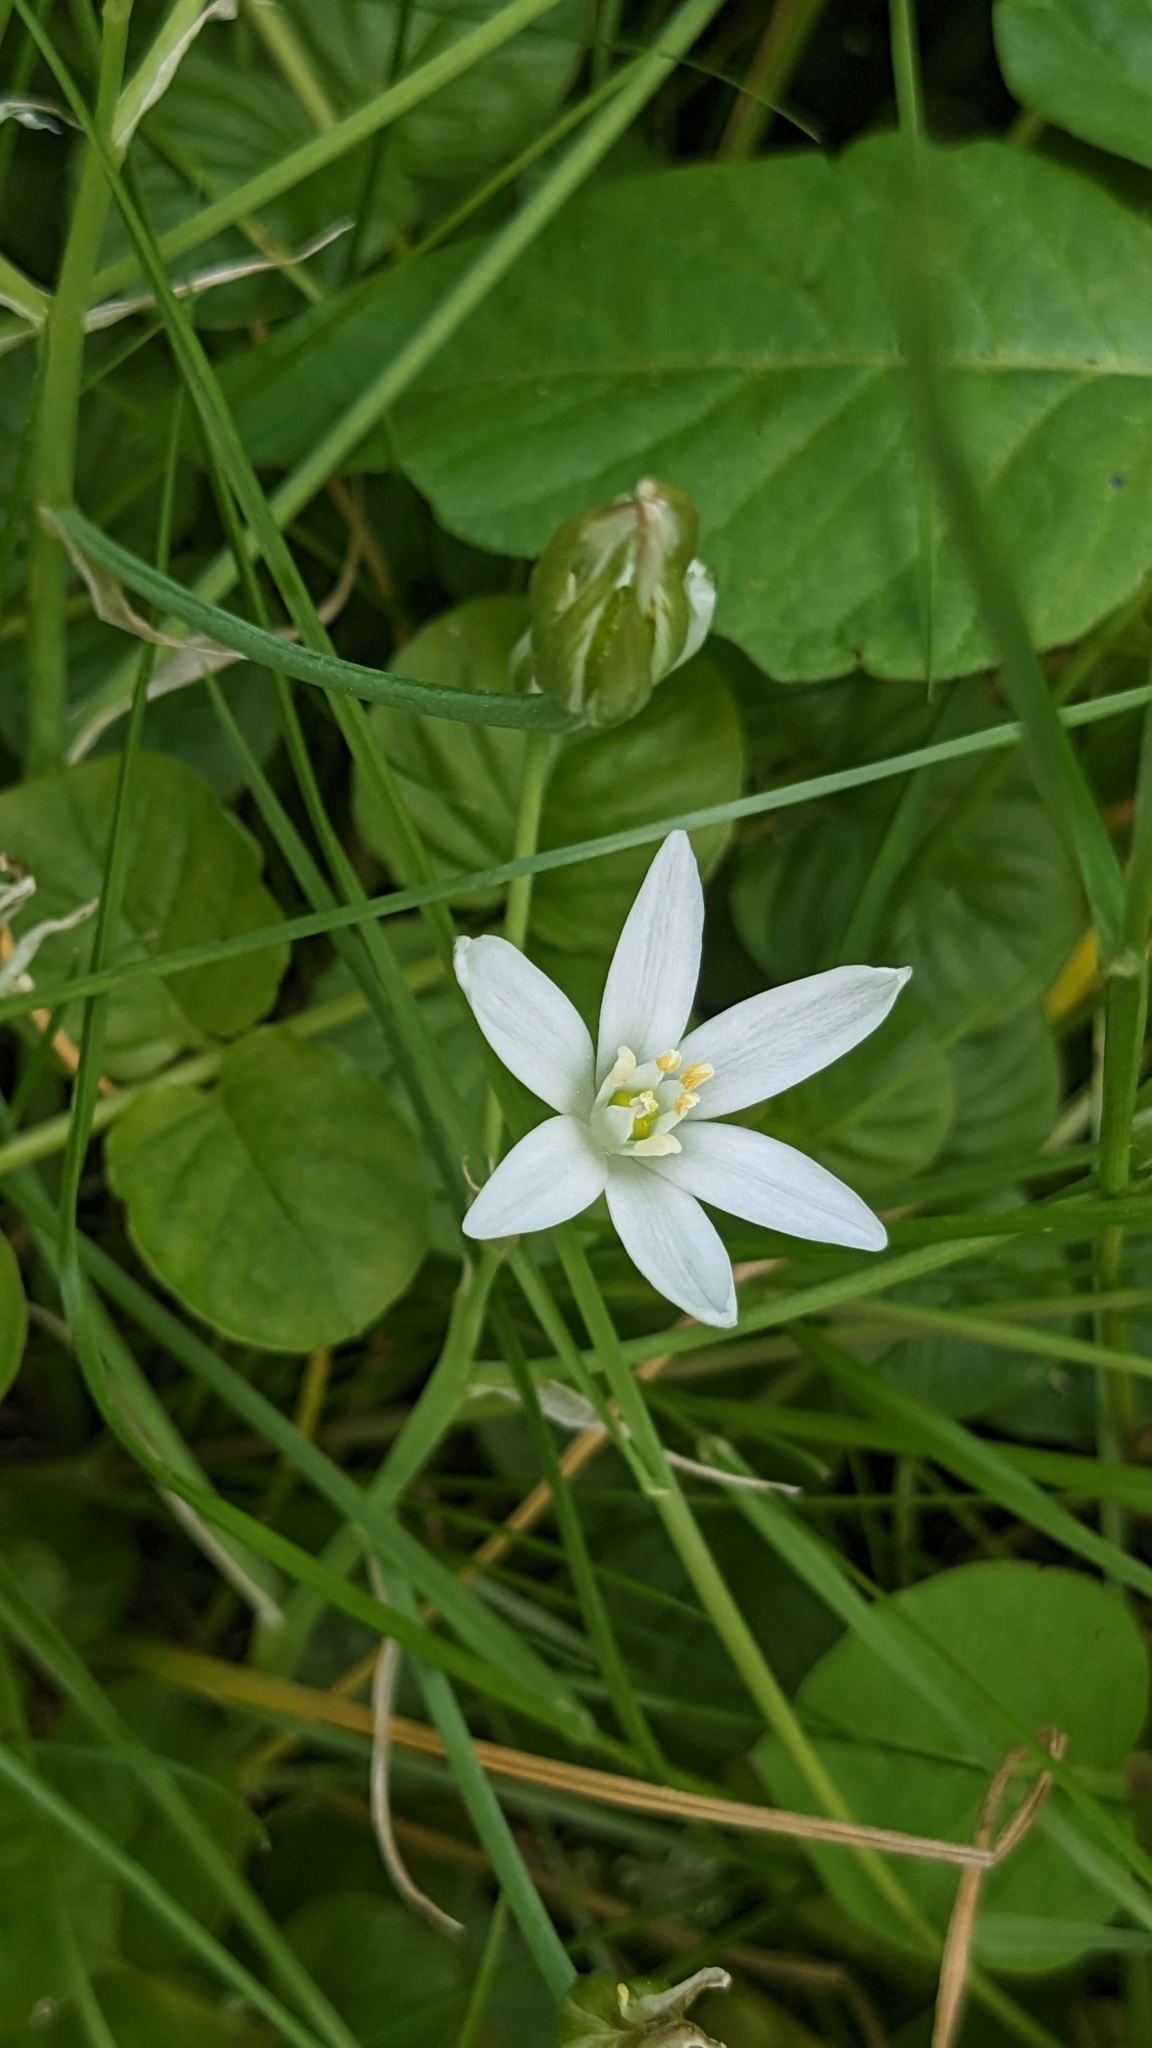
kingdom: Plantae
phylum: Tracheophyta
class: Liliopsida
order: Asparagales
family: Asparagaceae
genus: Ornithogalum
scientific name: Ornithogalum umbellatum
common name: Garden star-of-bethlehem
